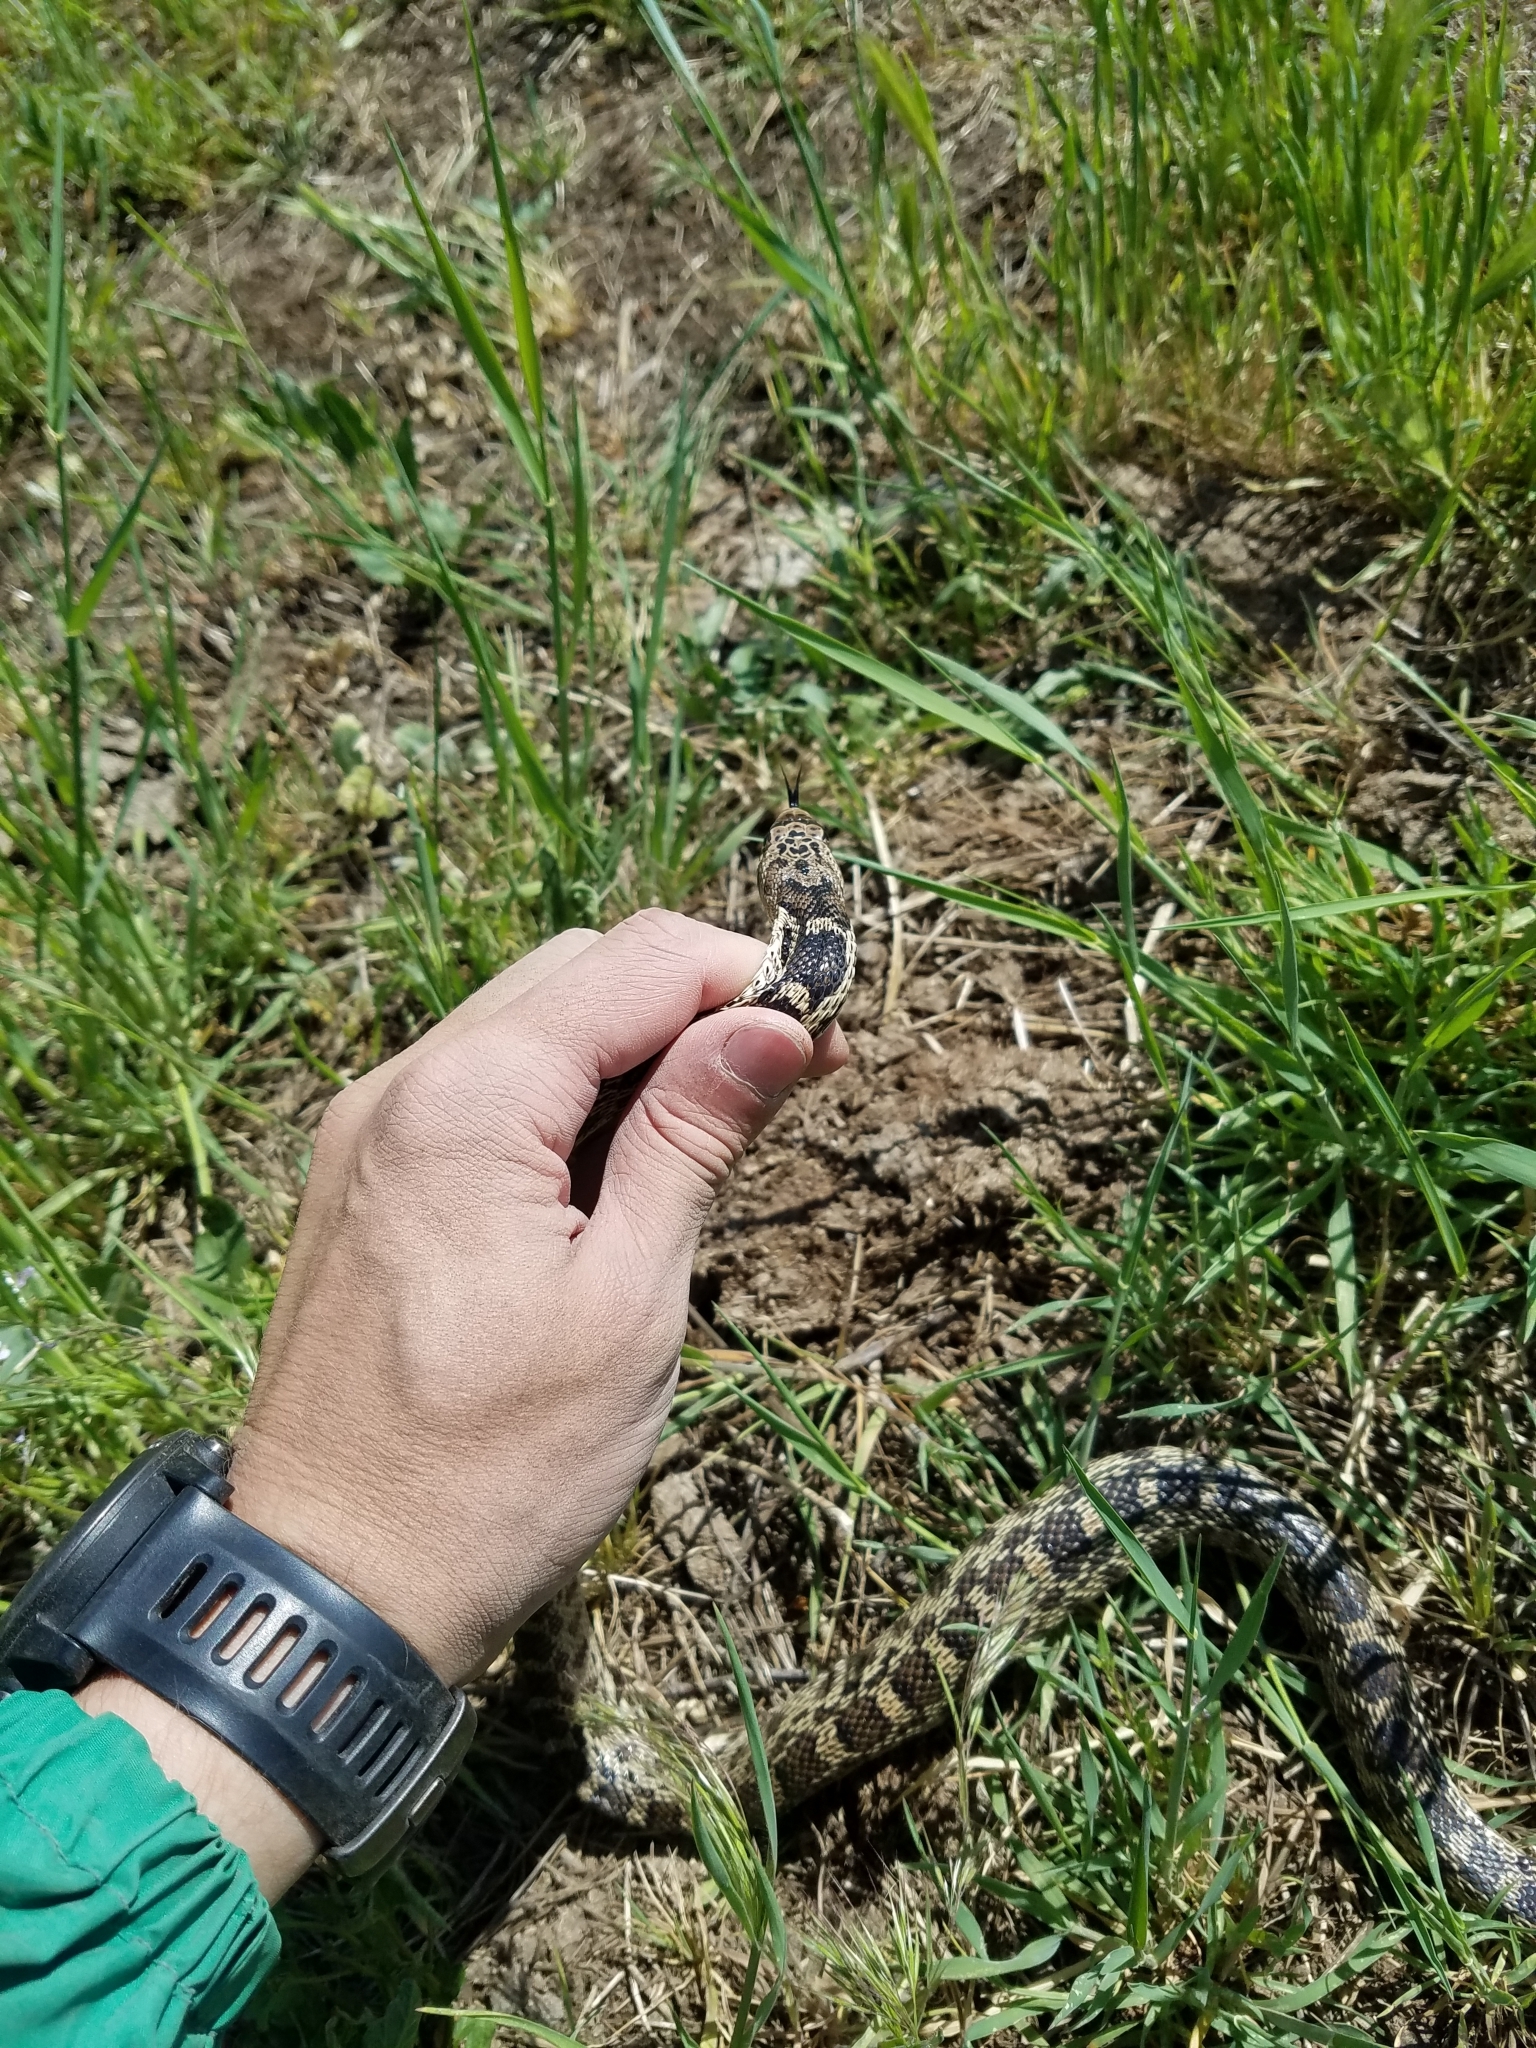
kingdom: Animalia
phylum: Chordata
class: Squamata
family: Colubridae
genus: Pituophis
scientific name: Pituophis catenifer
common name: Gopher snake
